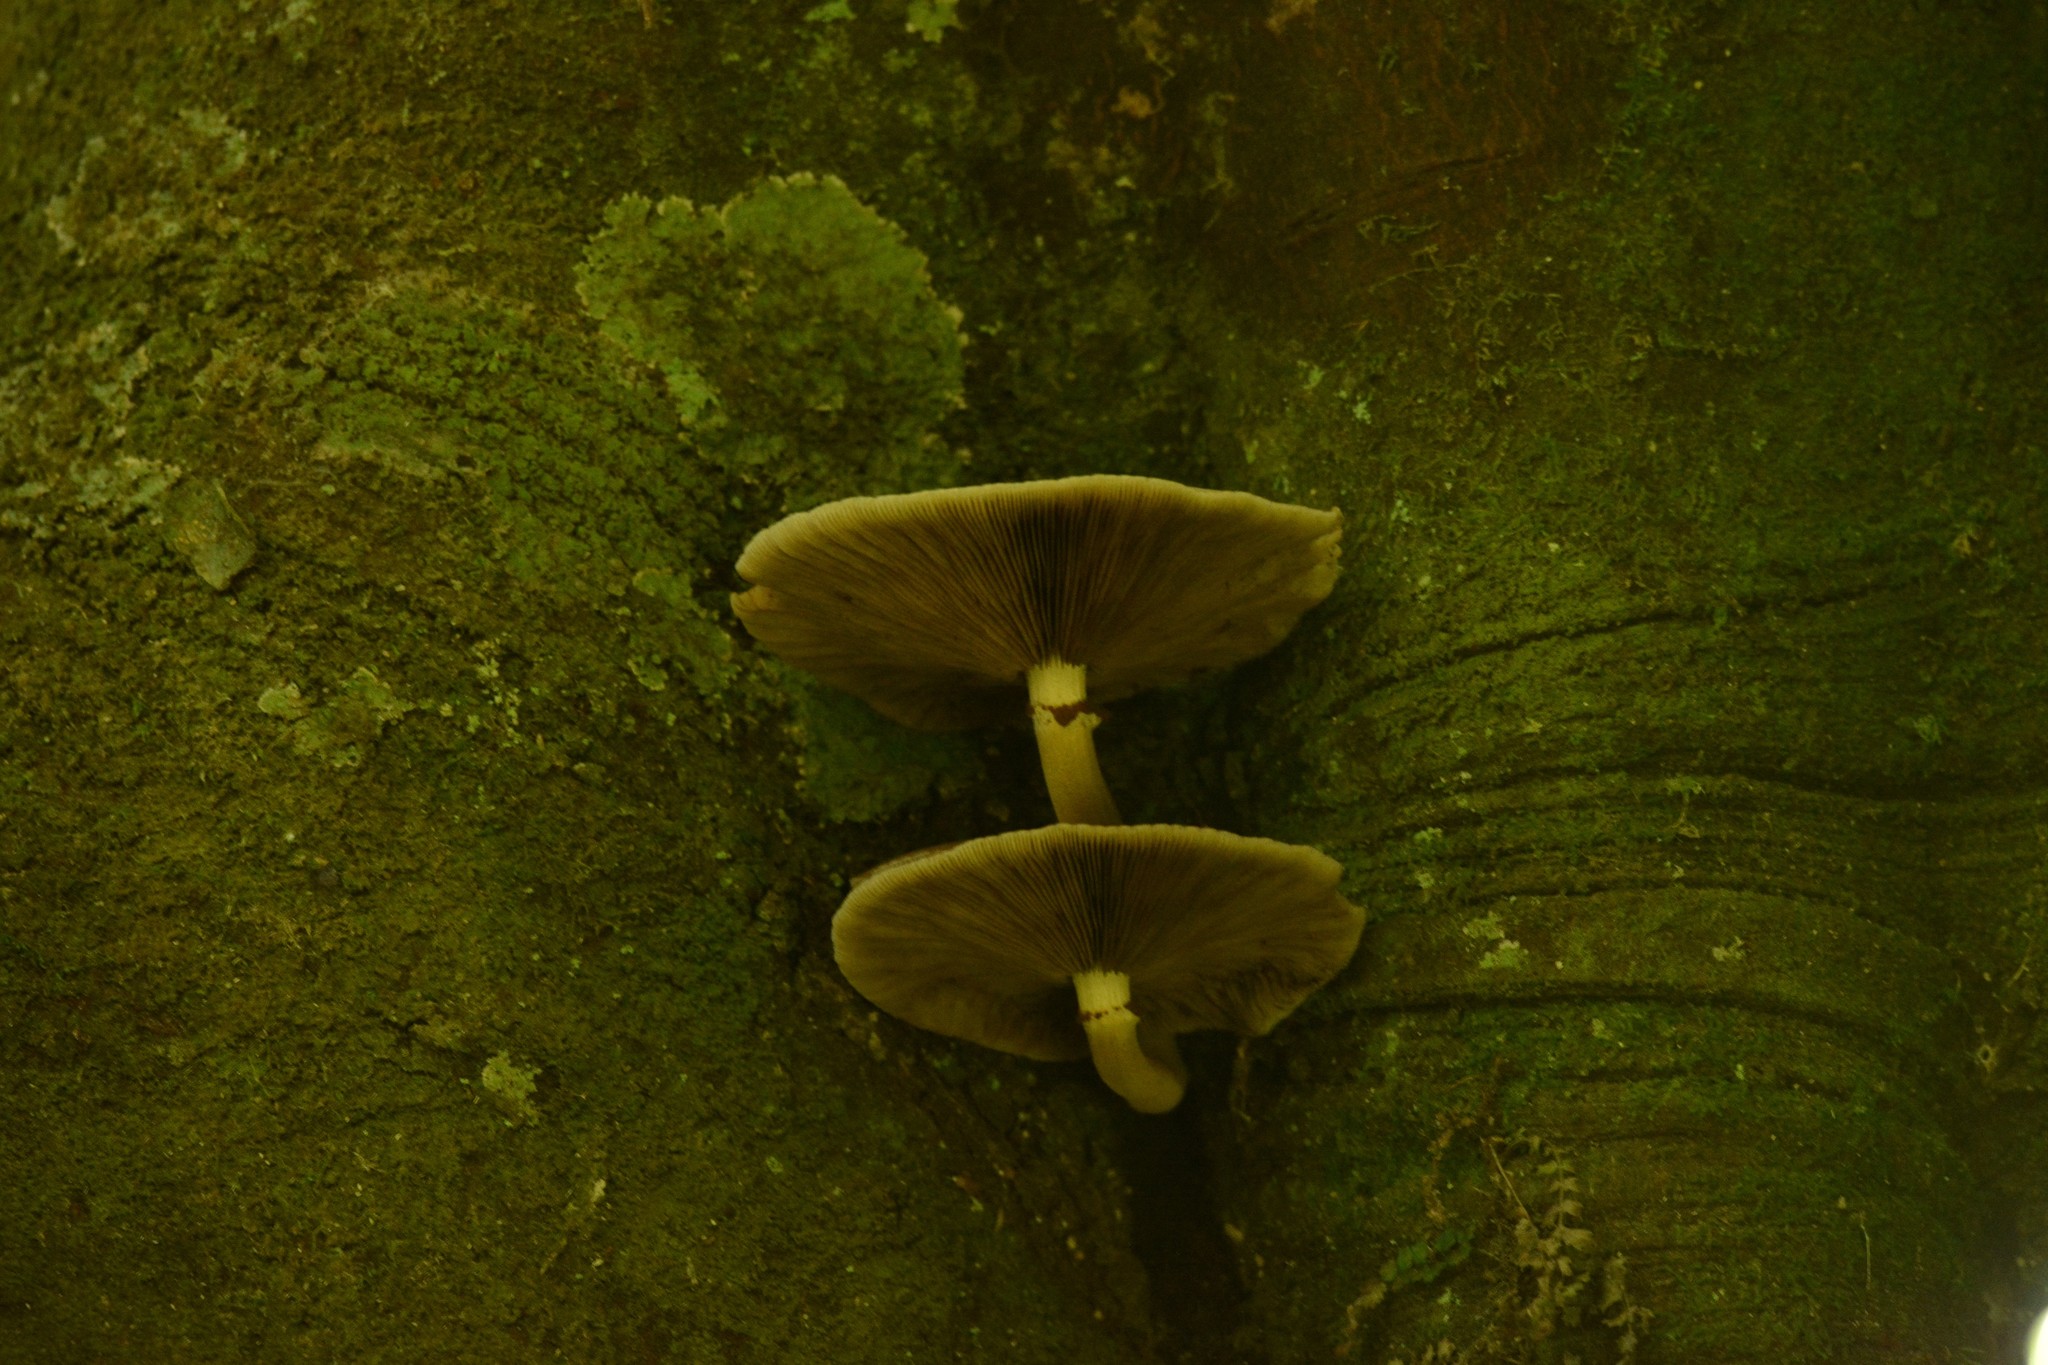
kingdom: Fungi
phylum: Basidiomycota
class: Agaricomycetes
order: Agaricales
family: Tubariaceae
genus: Cyclocybe
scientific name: Cyclocybe parasitica
